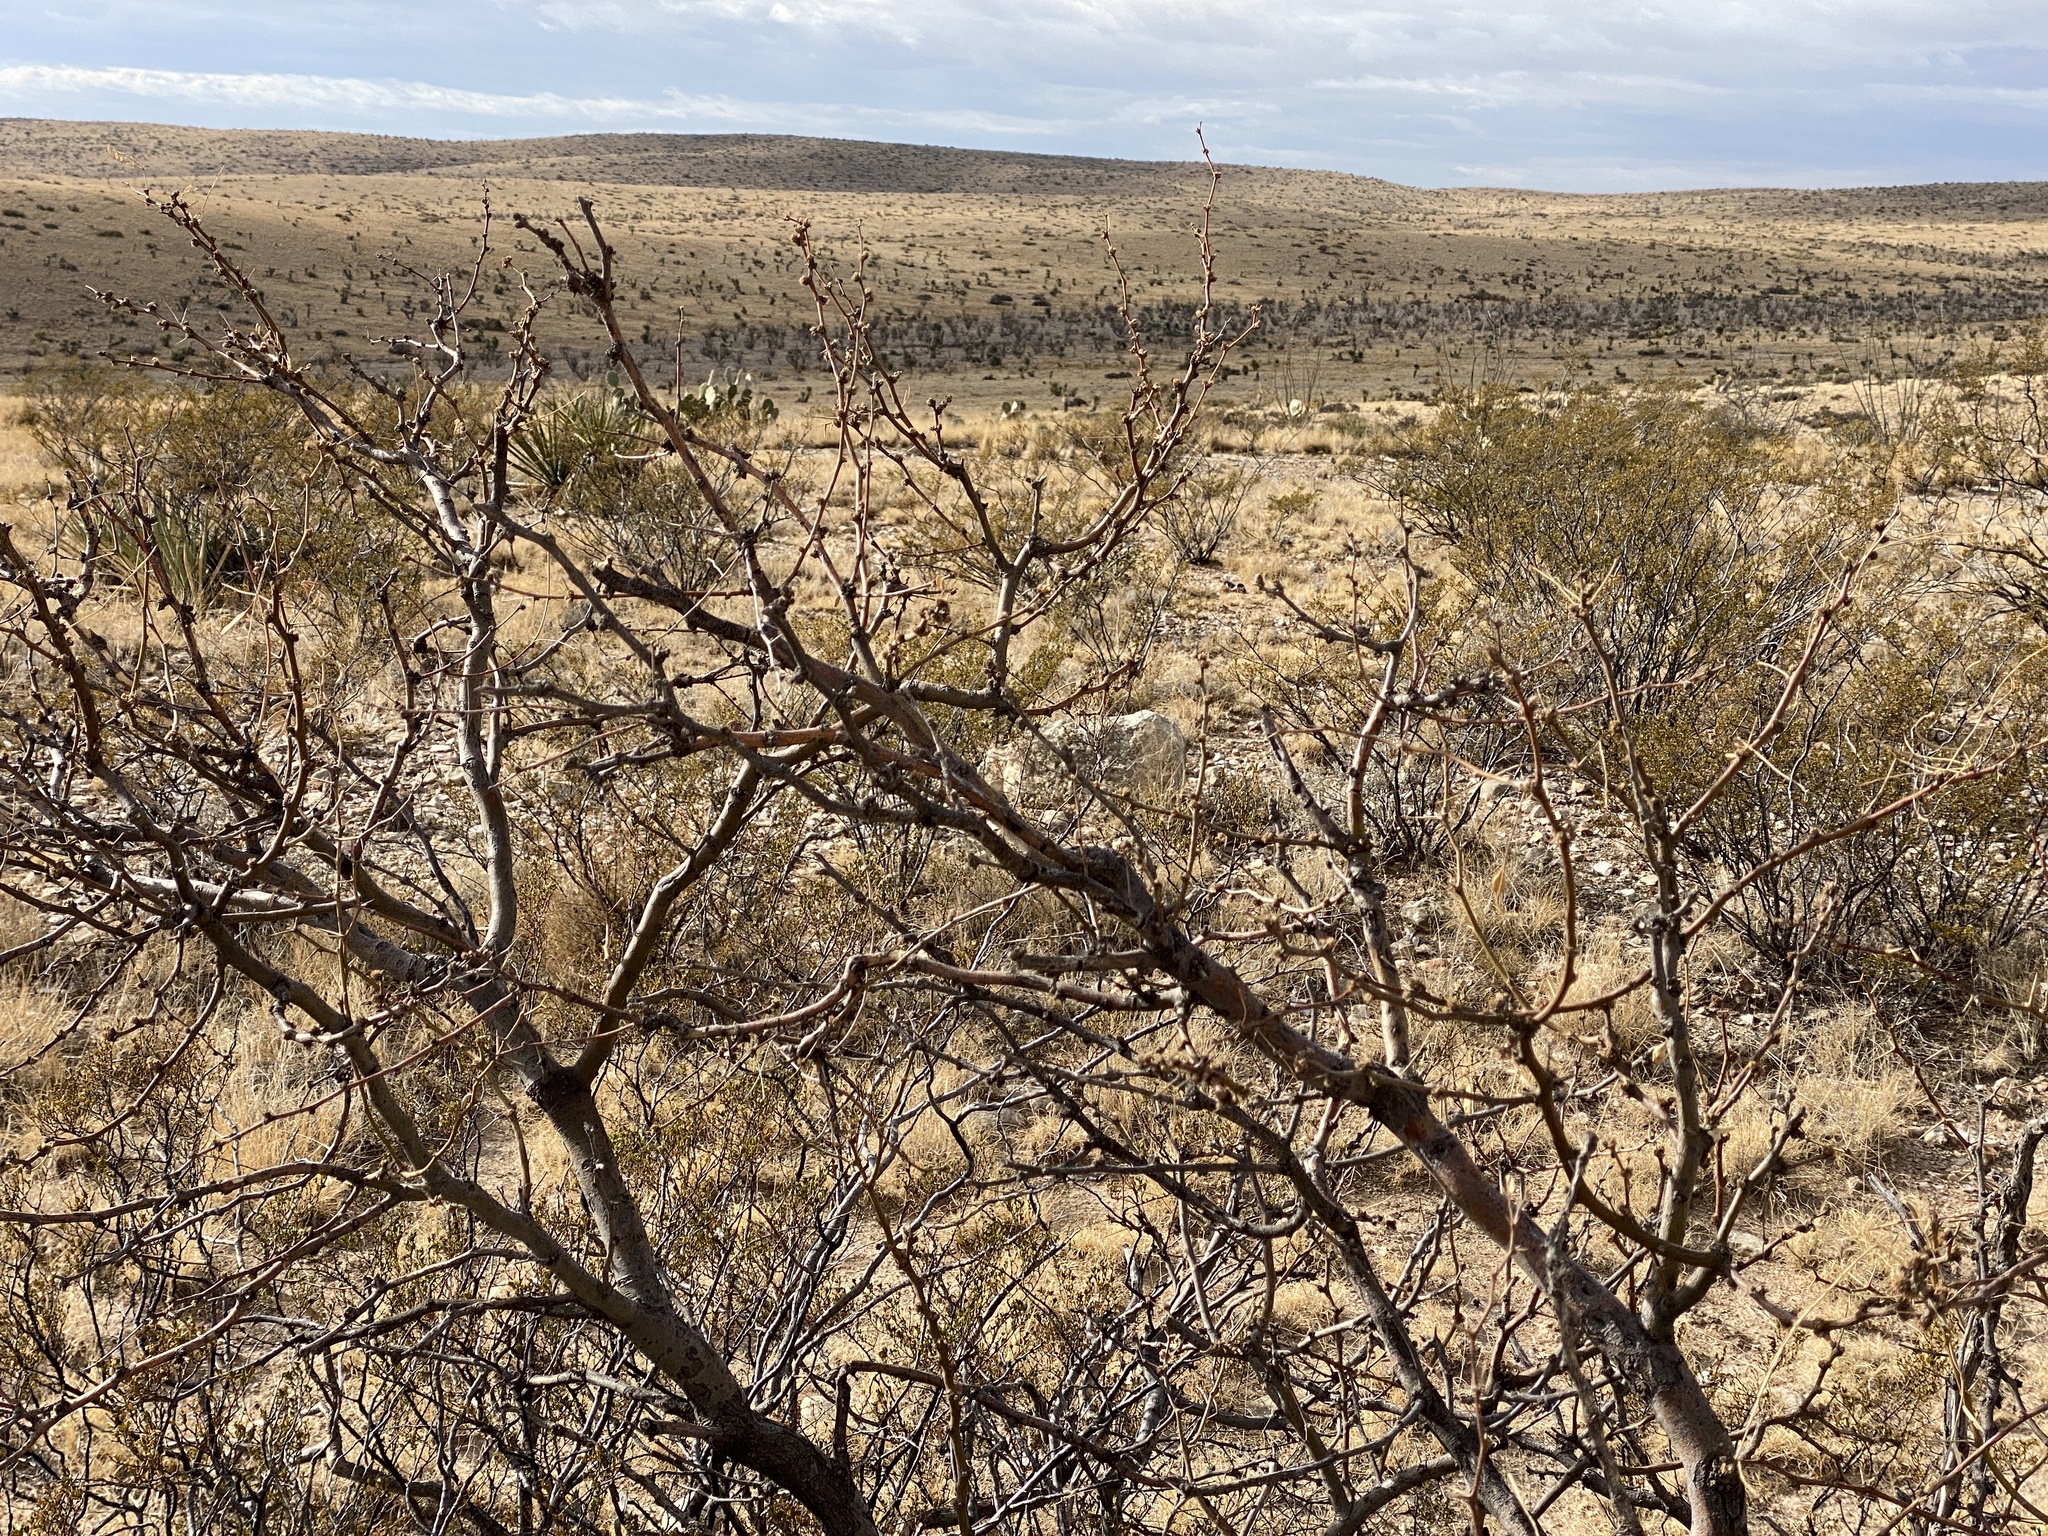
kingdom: Plantae
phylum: Tracheophyta
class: Magnoliopsida
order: Fabales
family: Fabaceae
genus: Prosopis
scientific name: Prosopis glandulosa
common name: Honey mesquite
